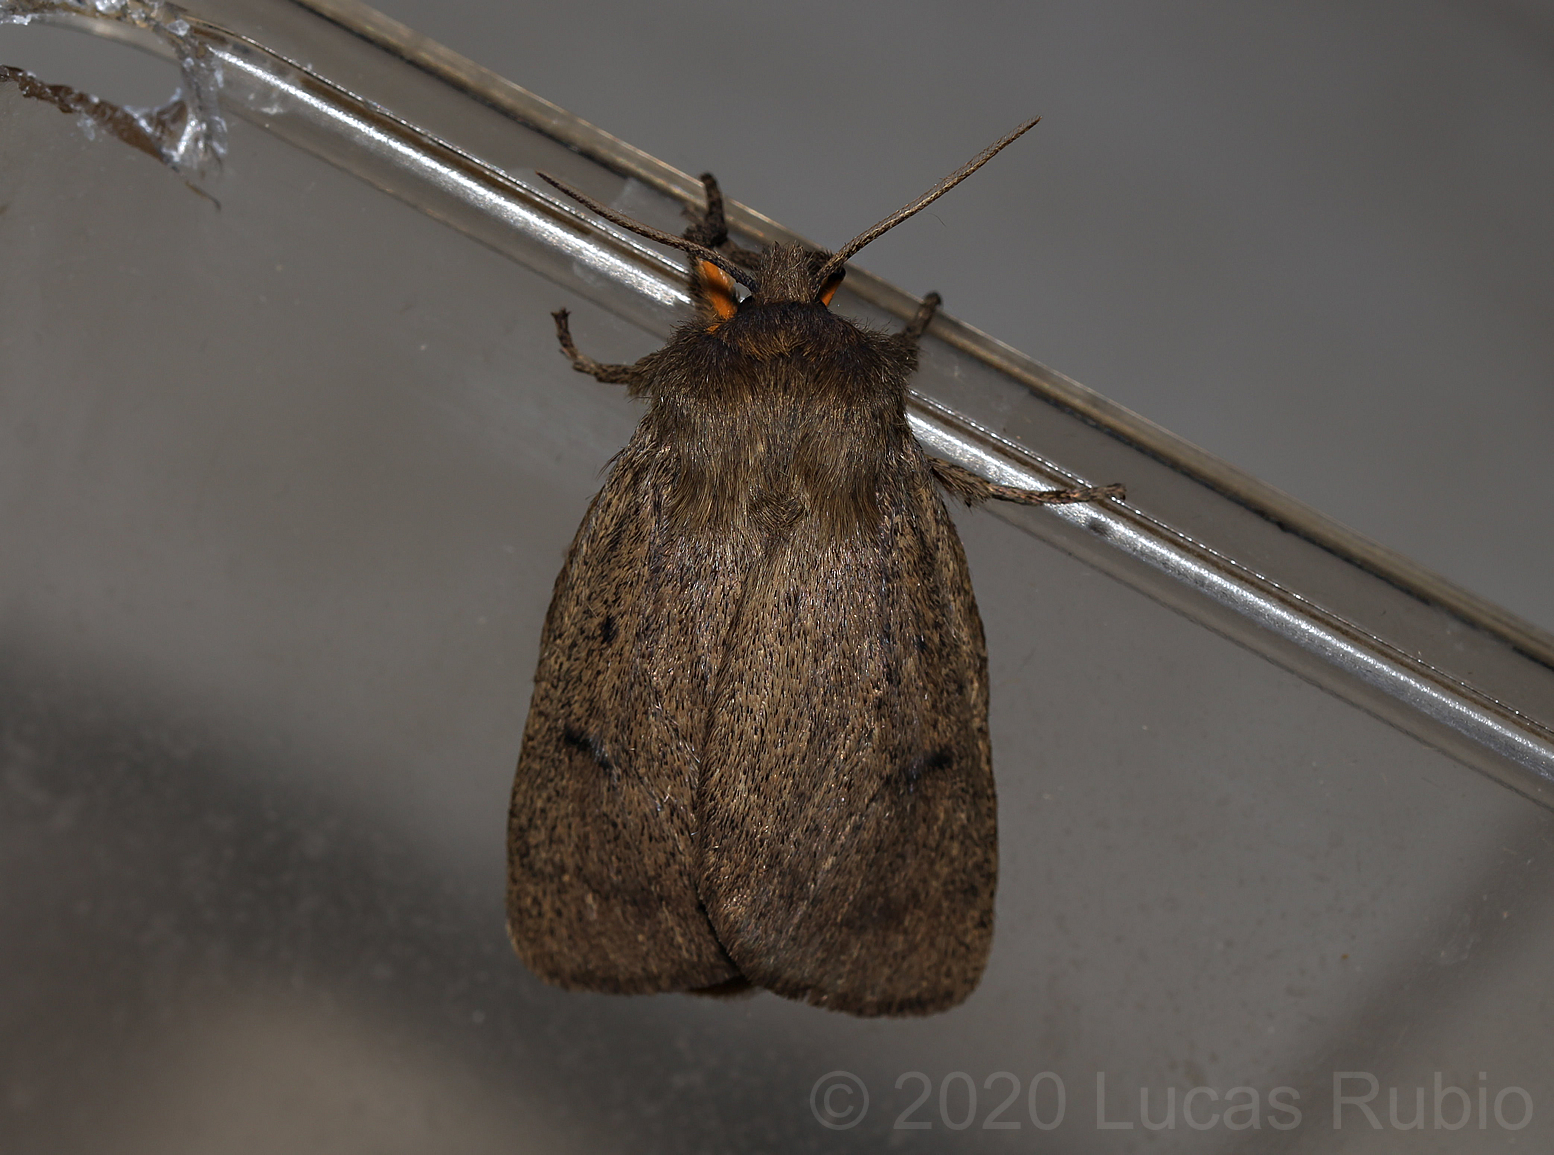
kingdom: Animalia
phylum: Arthropoda
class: Insecta
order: Lepidoptera
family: Erebidae
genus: Paracles
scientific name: Paracles fusca
